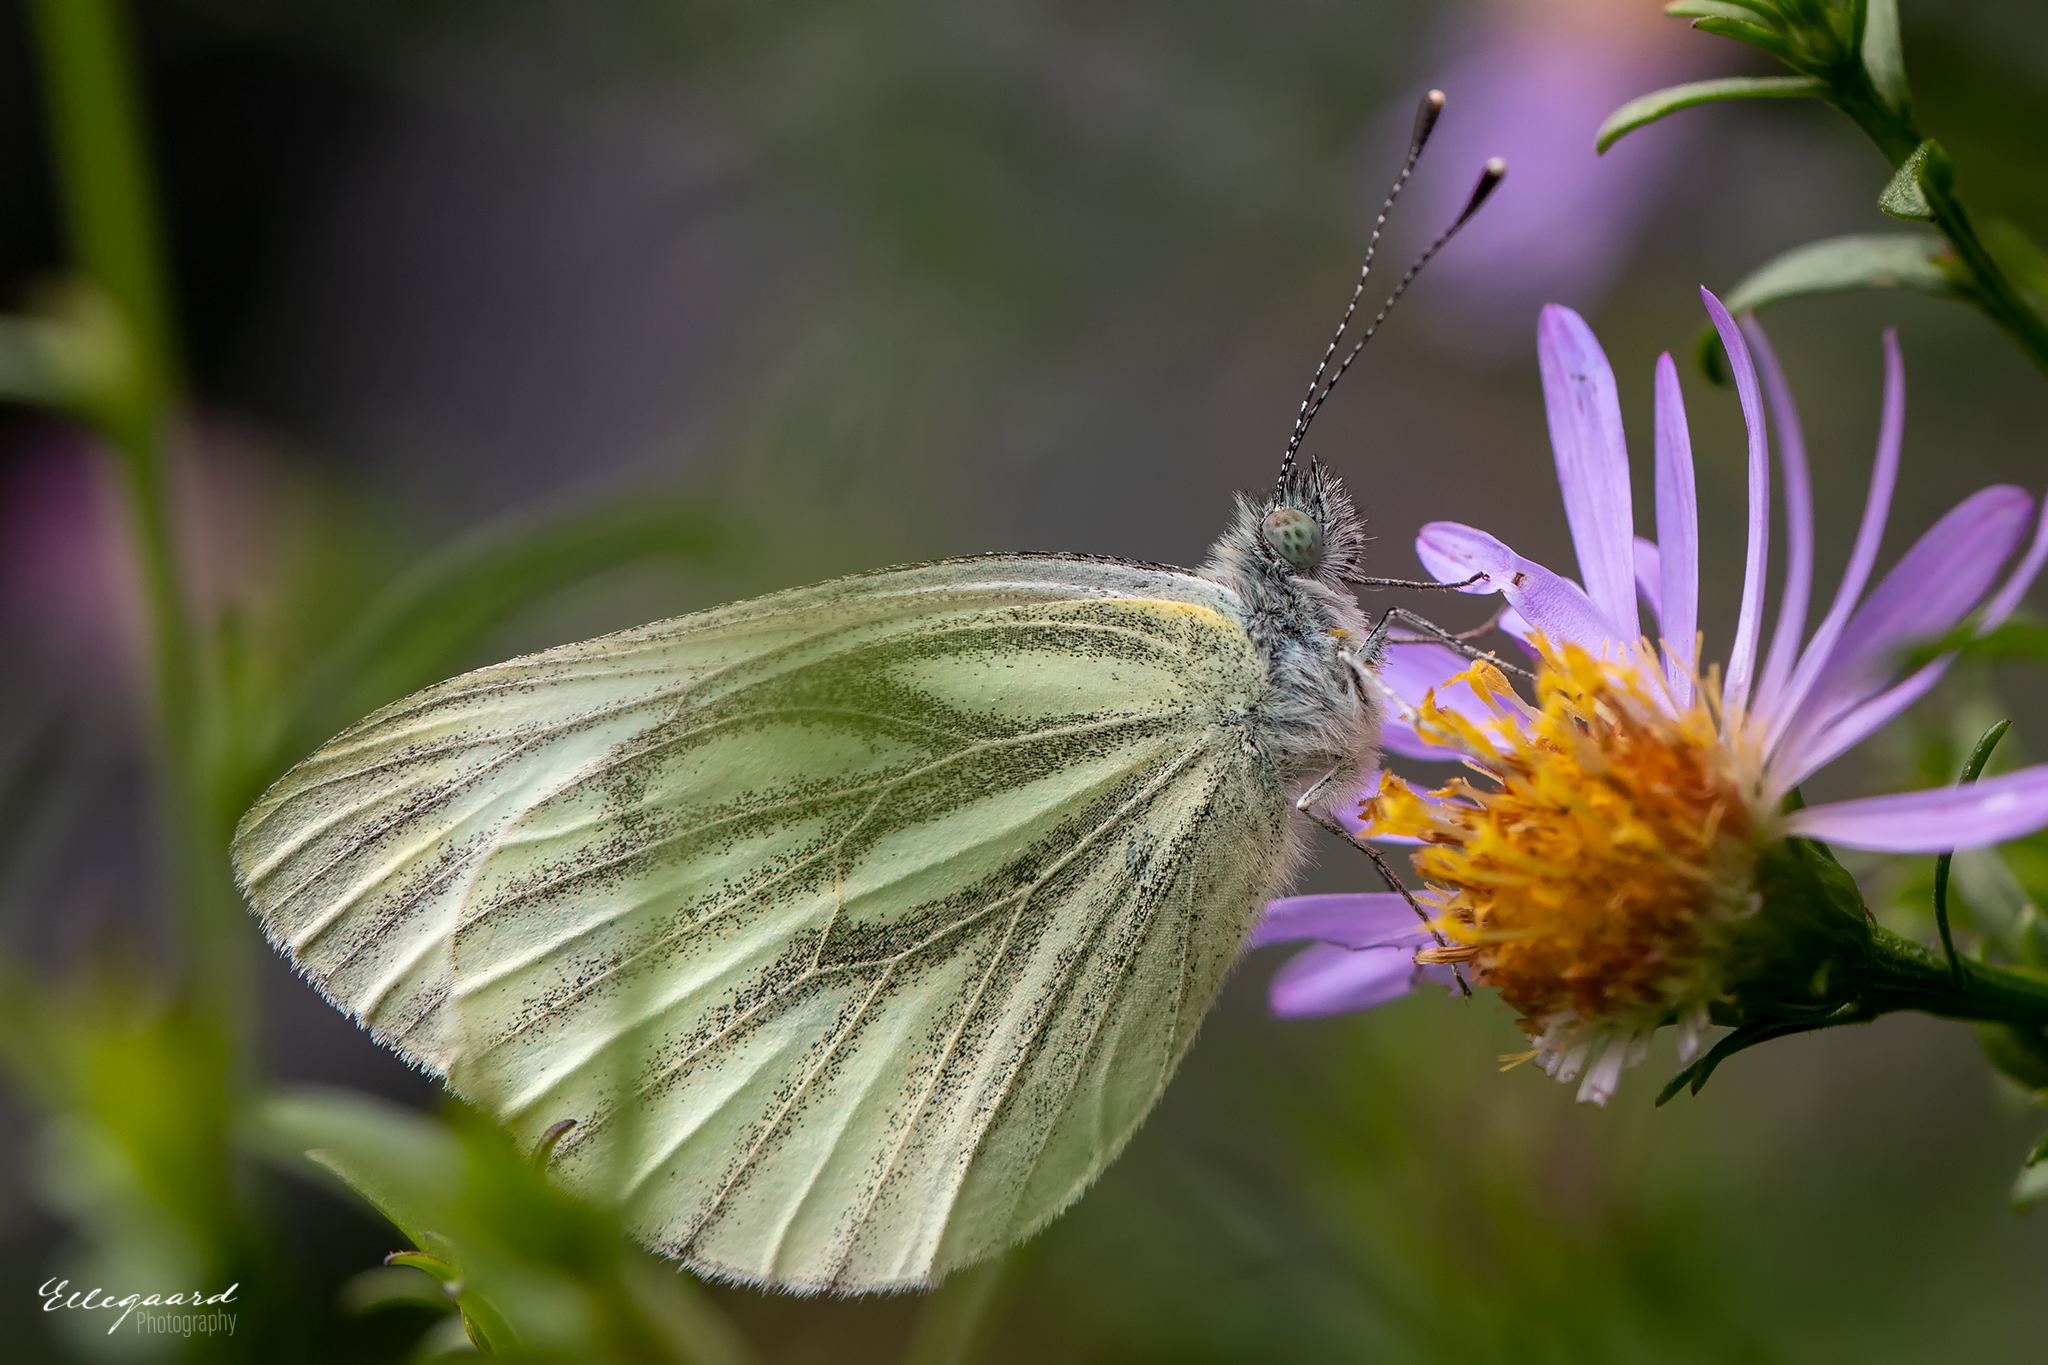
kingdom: Animalia
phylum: Arthropoda
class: Insecta
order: Lepidoptera
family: Pieridae
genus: Pieris
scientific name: Pieris napi
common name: Green-veined white
